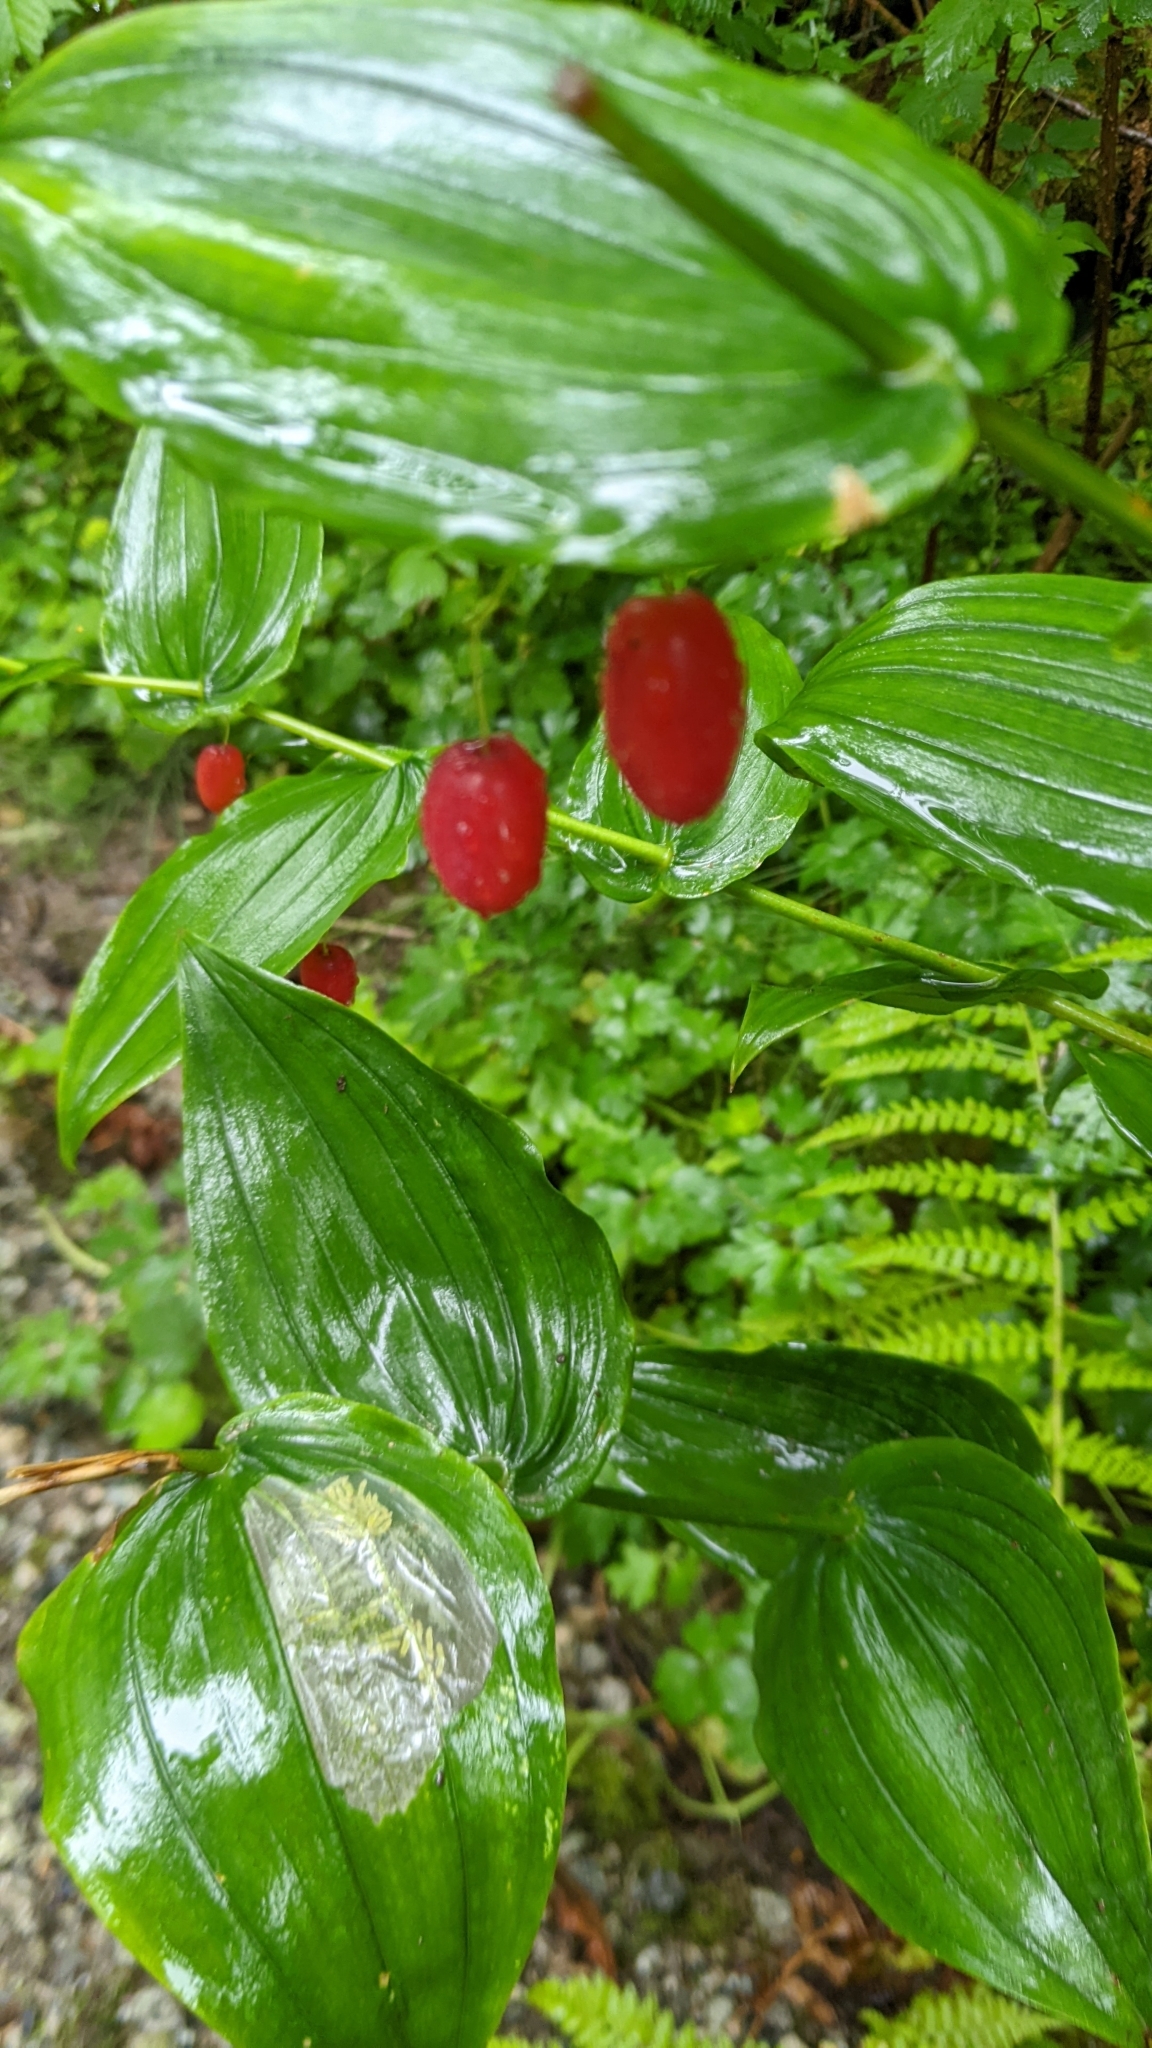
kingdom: Plantae
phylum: Tracheophyta
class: Liliopsida
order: Liliales
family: Liliaceae
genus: Streptopus
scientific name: Streptopus amplexifolius
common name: Clasp twisted stalk
